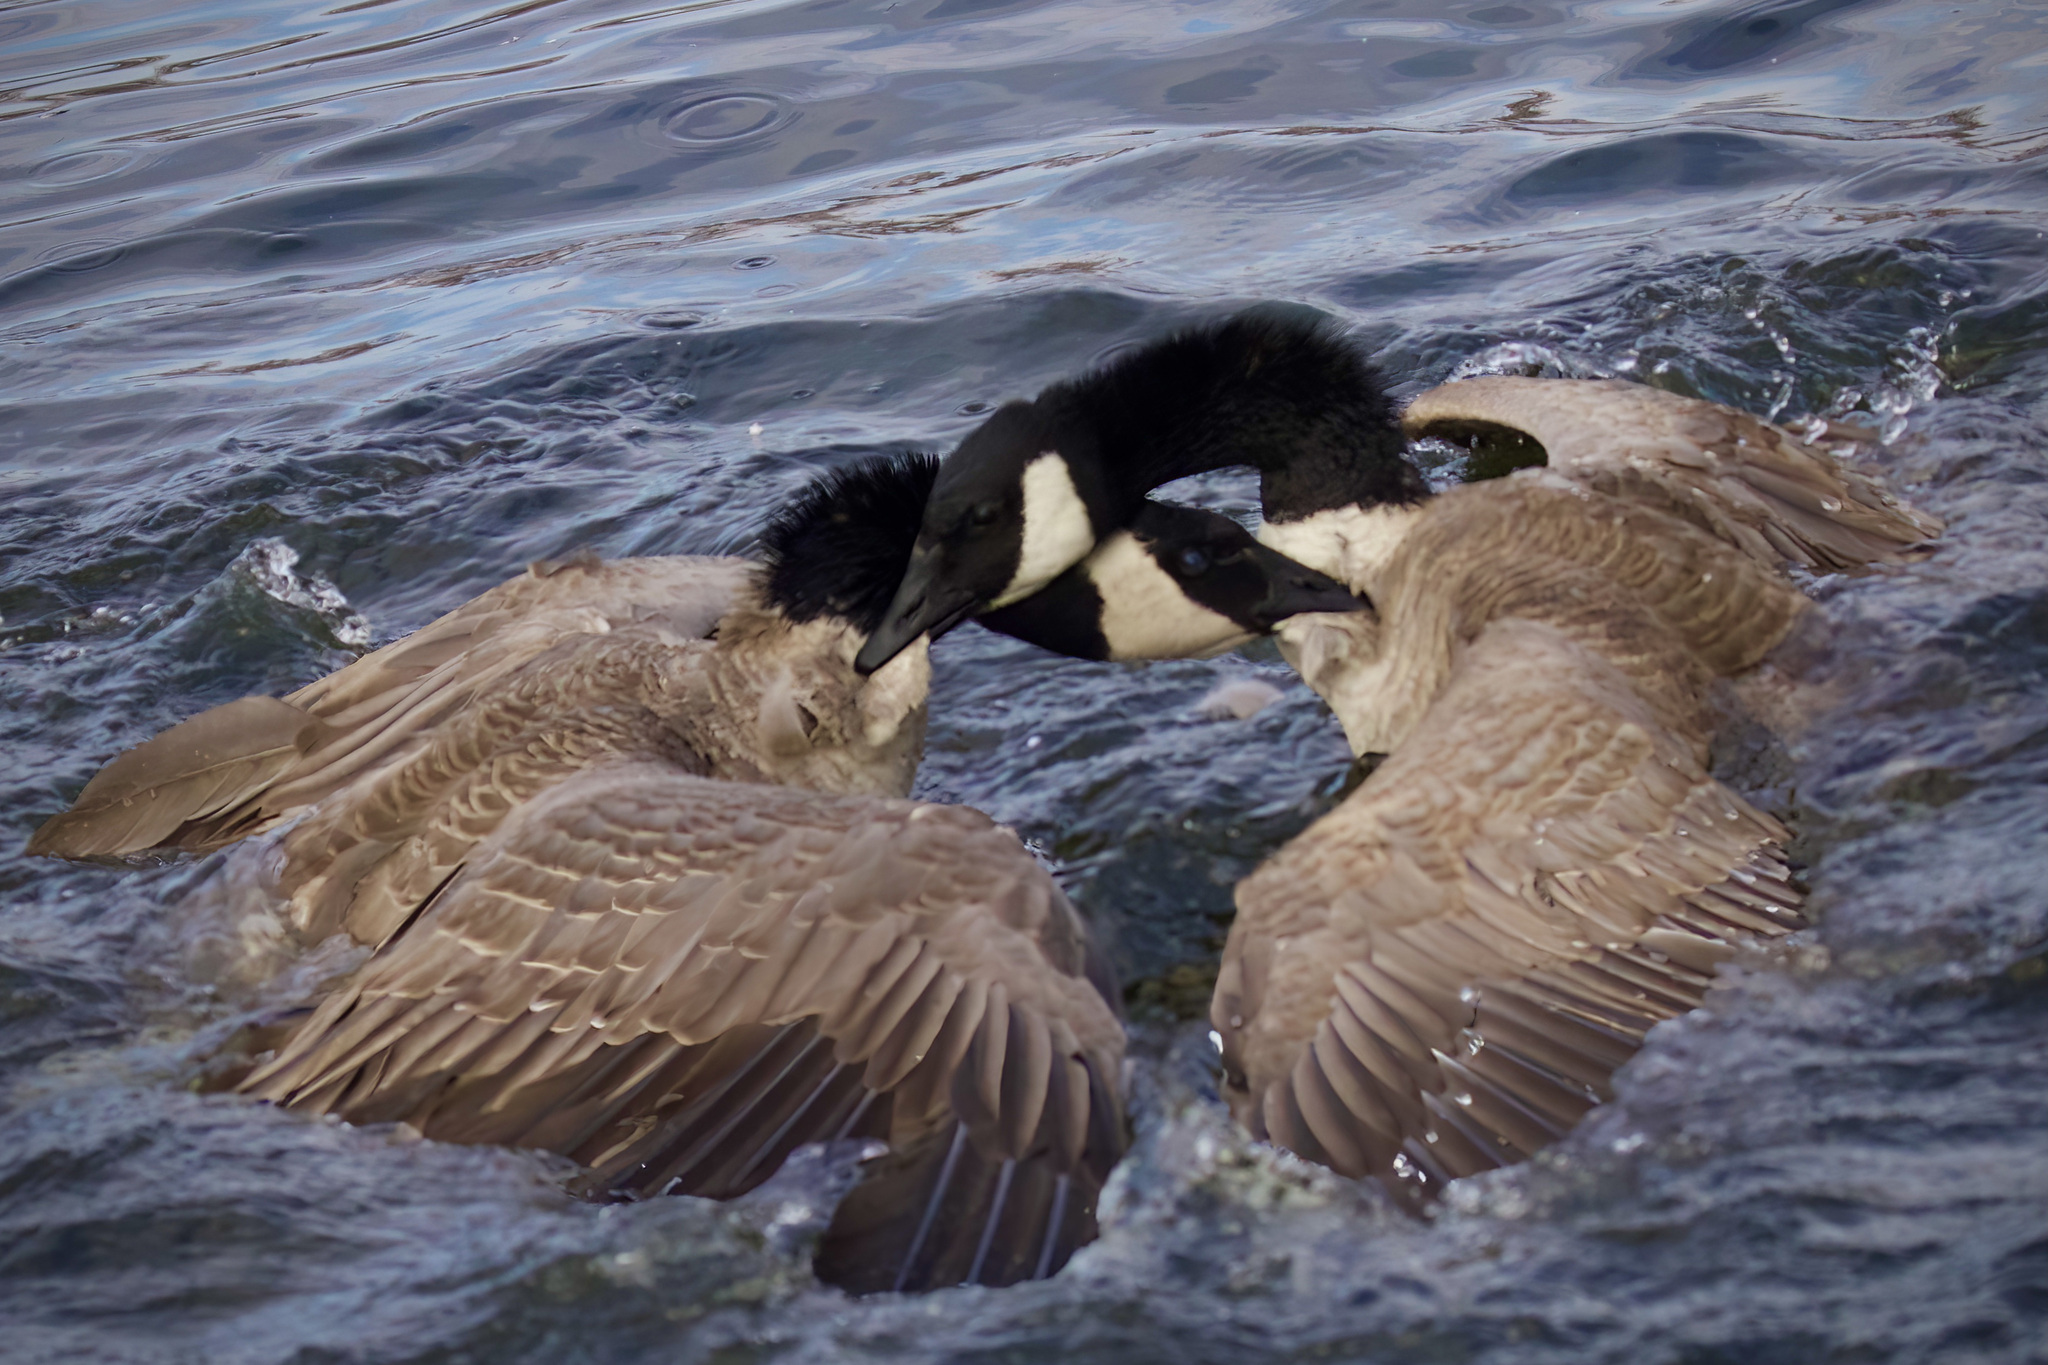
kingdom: Animalia
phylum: Chordata
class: Aves
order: Anseriformes
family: Anatidae
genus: Branta
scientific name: Branta canadensis
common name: Canada goose
